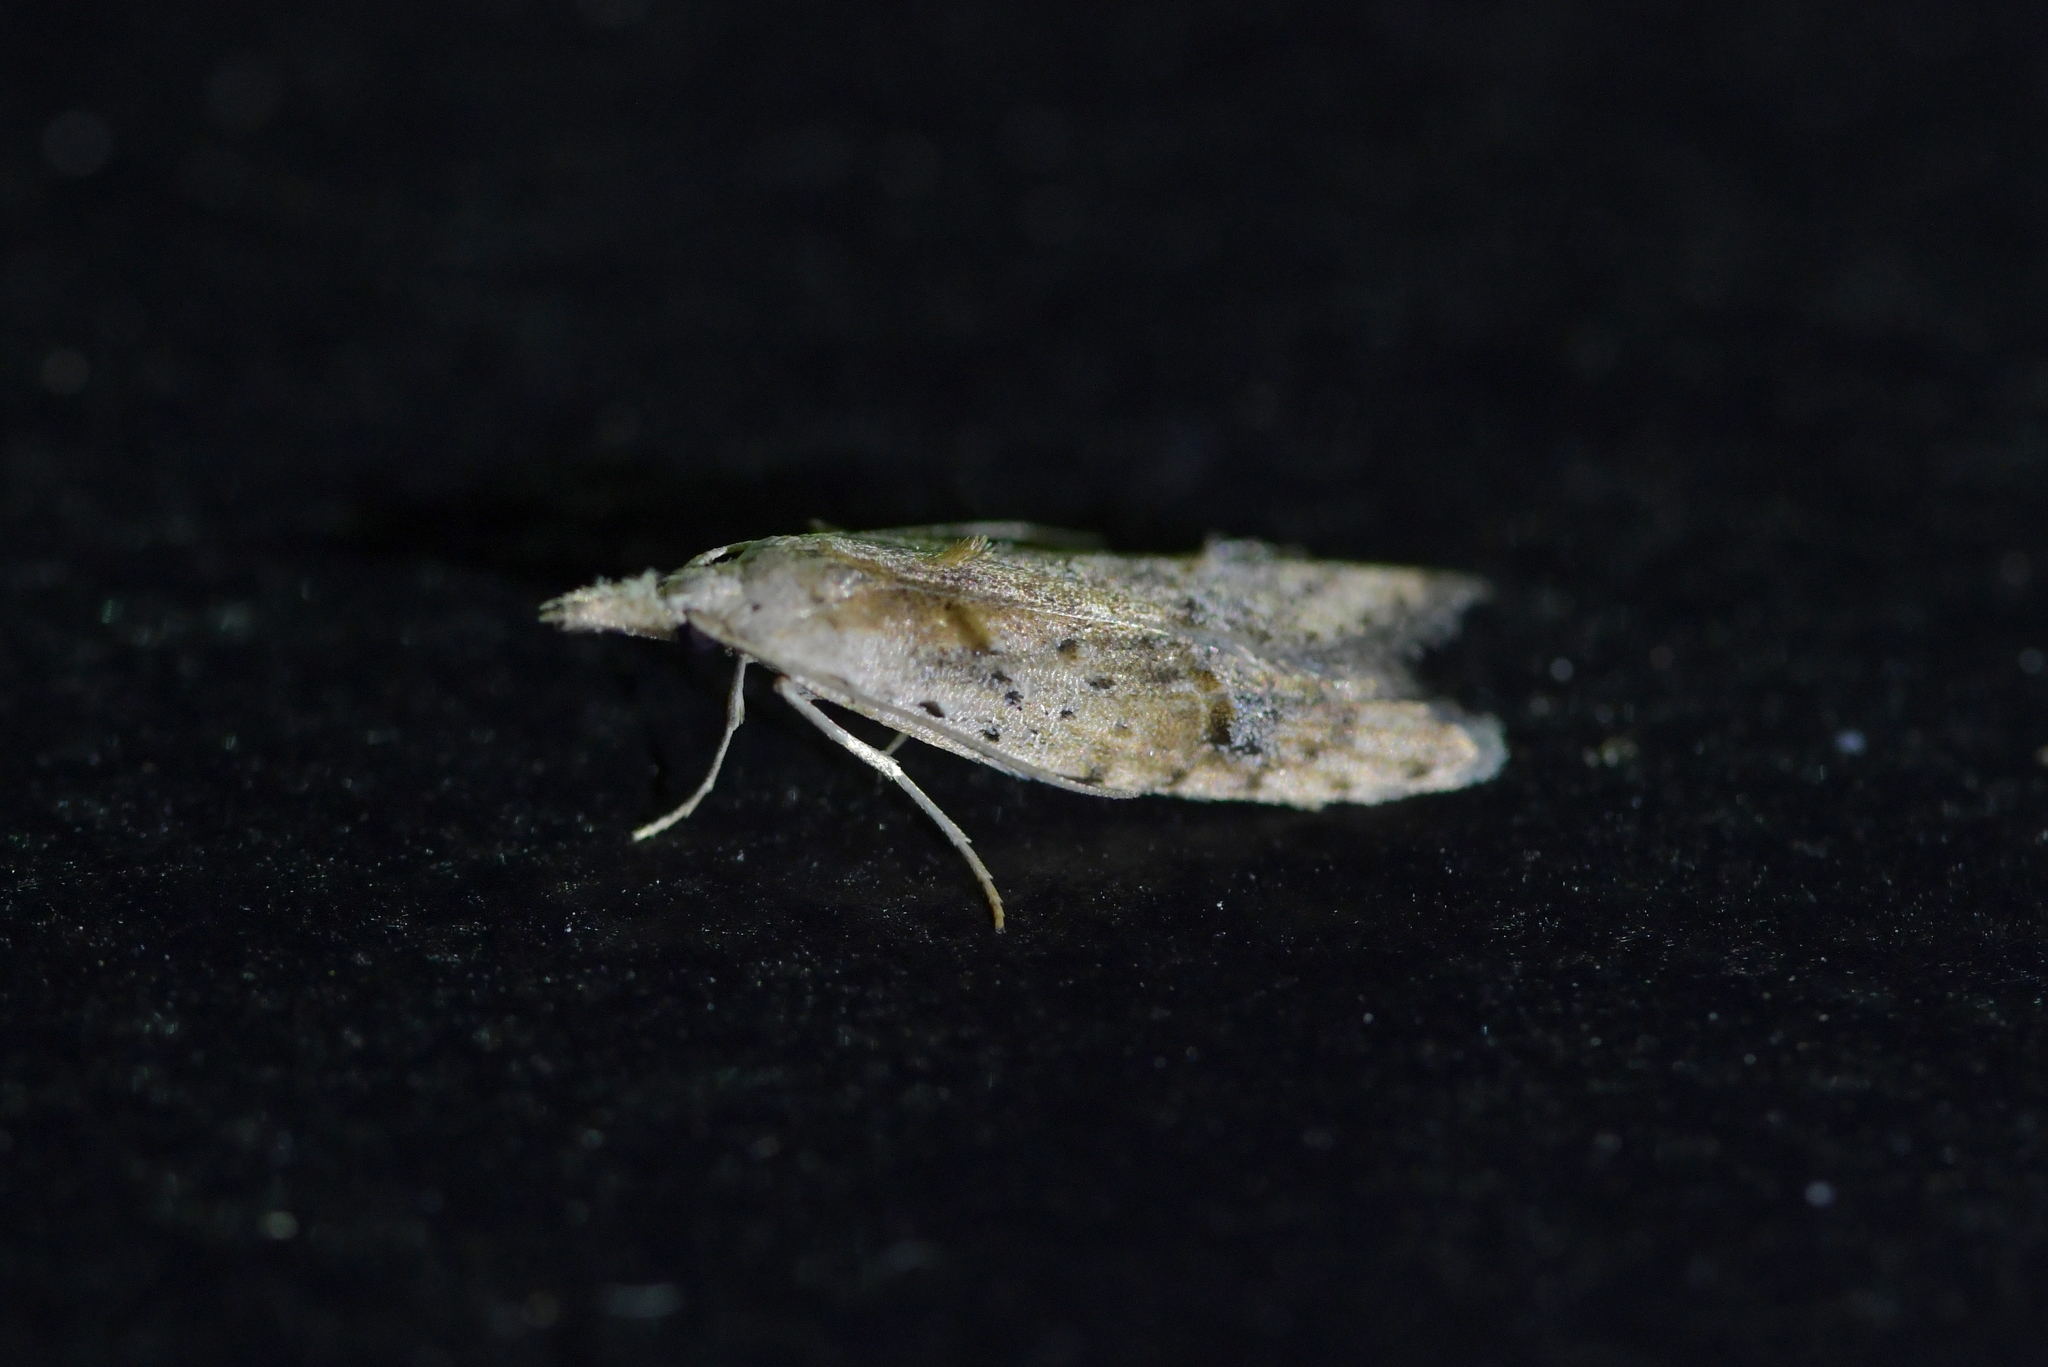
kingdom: Animalia
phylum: Arthropoda
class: Insecta
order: Lepidoptera
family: Carposinidae
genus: Carposina
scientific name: Carposina rubophaga
